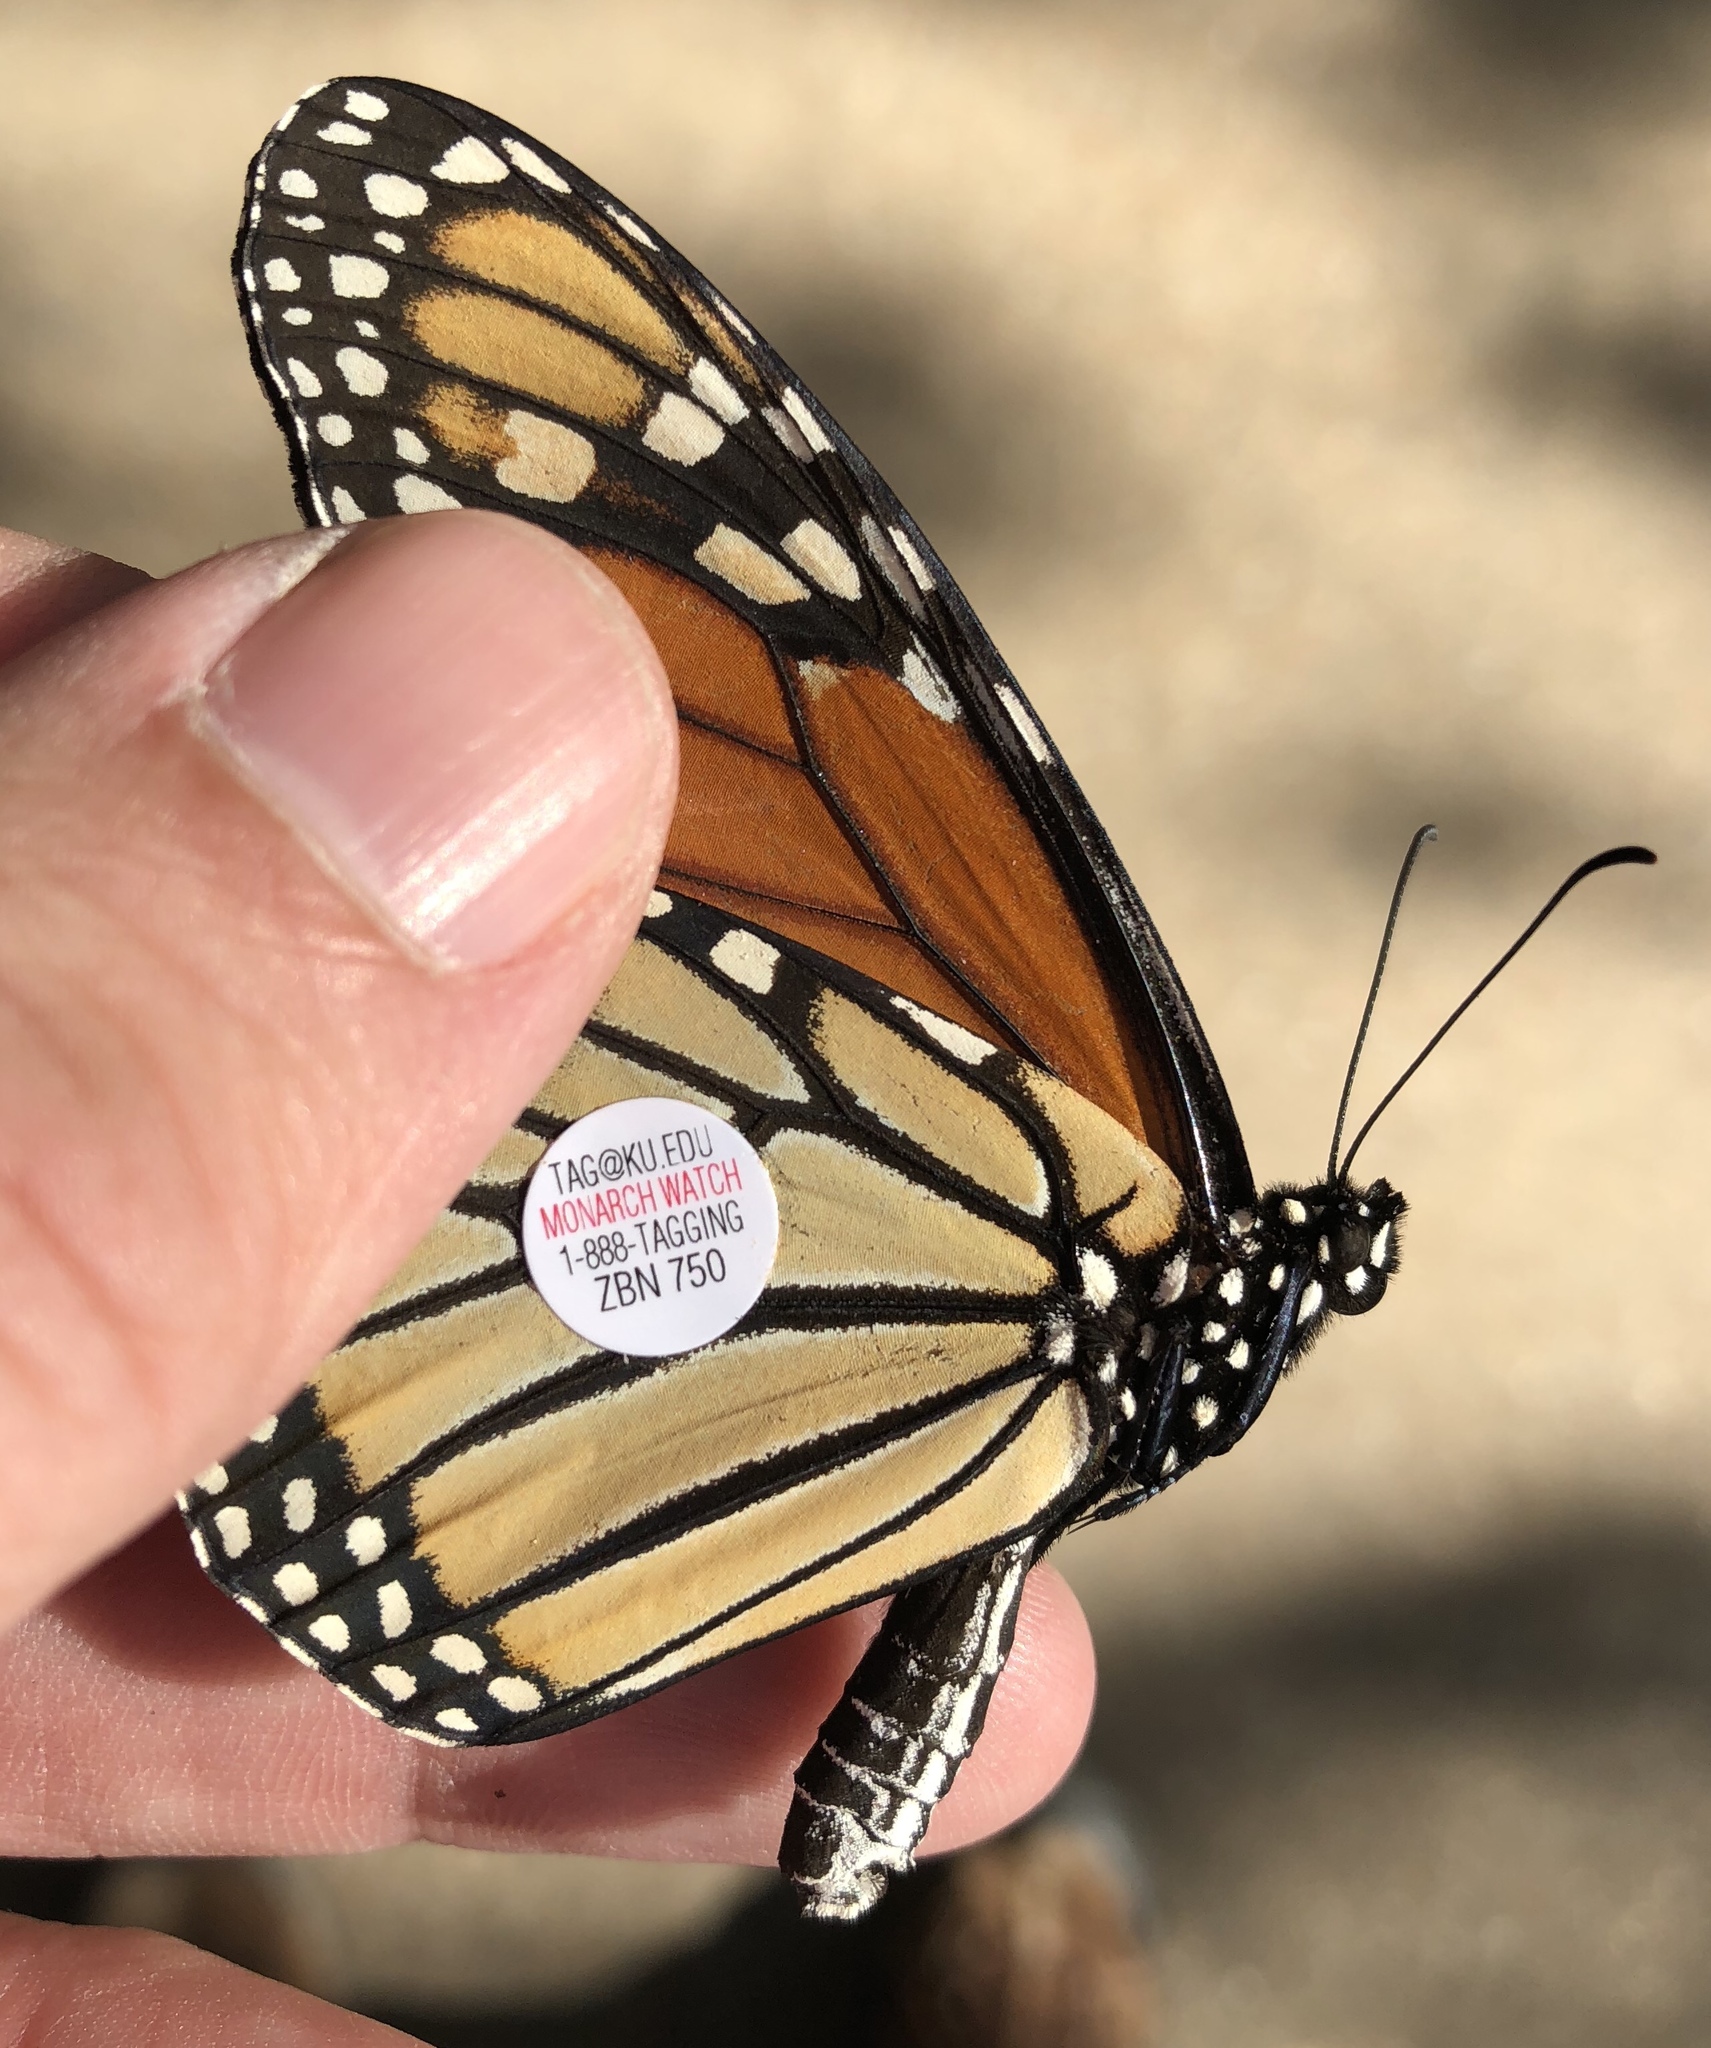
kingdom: Animalia
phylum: Arthropoda
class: Insecta
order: Lepidoptera
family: Nymphalidae
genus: Danaus
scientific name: Danaus plexippus
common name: Monarch
